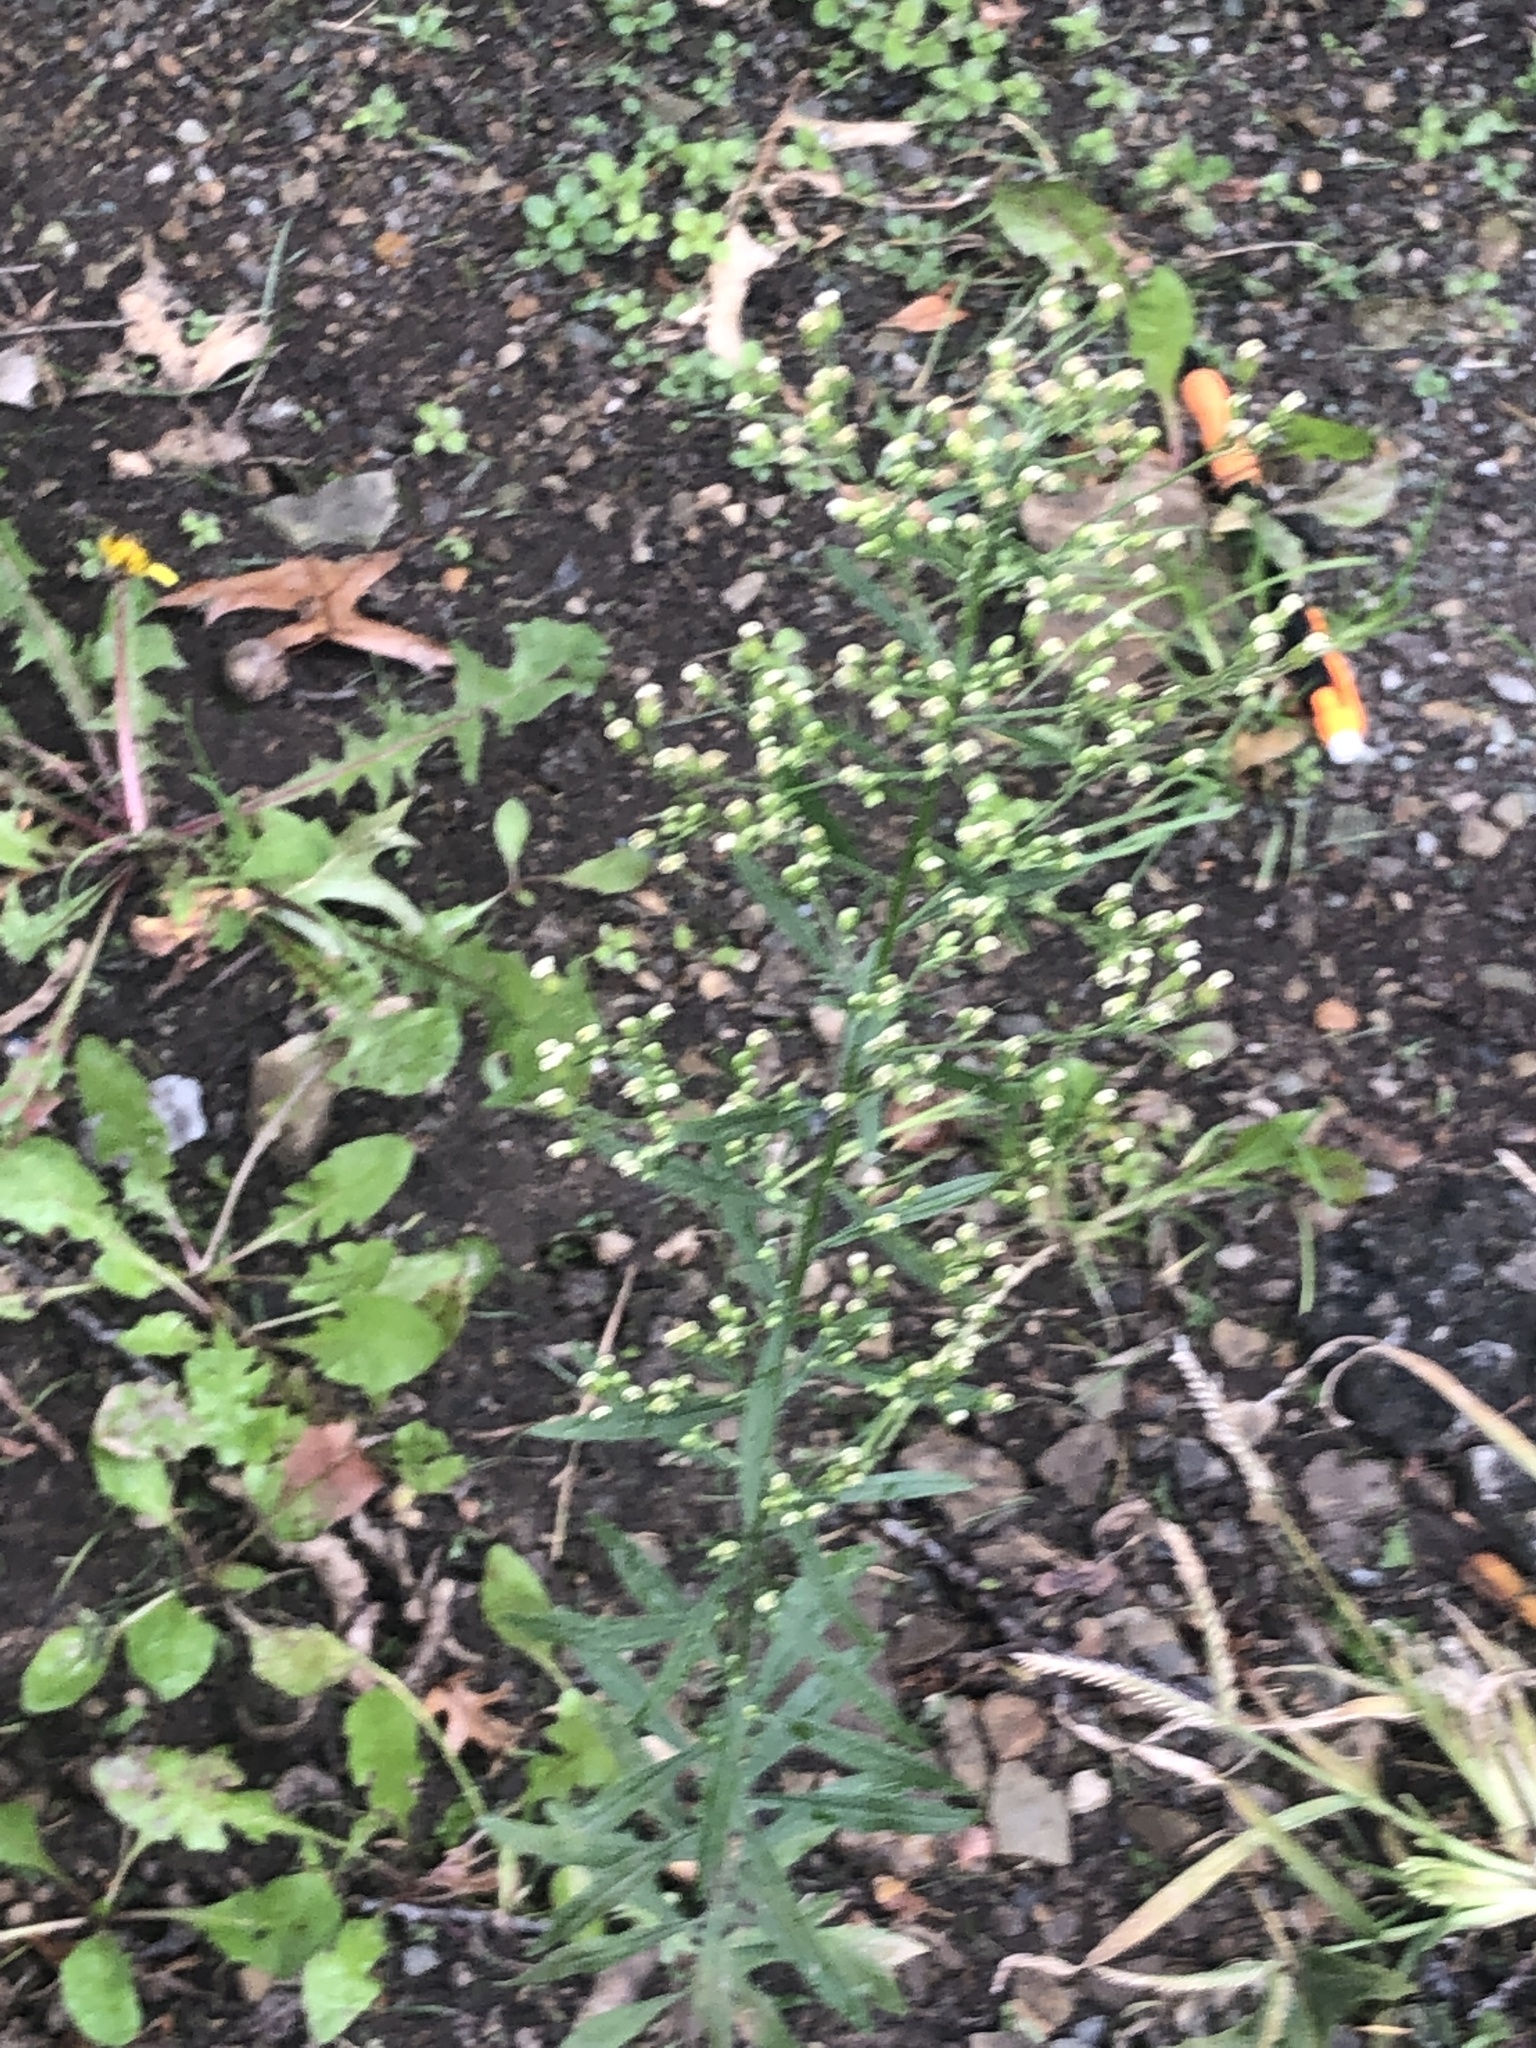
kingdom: Plantae
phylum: Tracheophyta
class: Magnoliopsida
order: Asterales
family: Asteraceae
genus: Erigeron
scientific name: Erigeron canadensis
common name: Canadian fleabane
